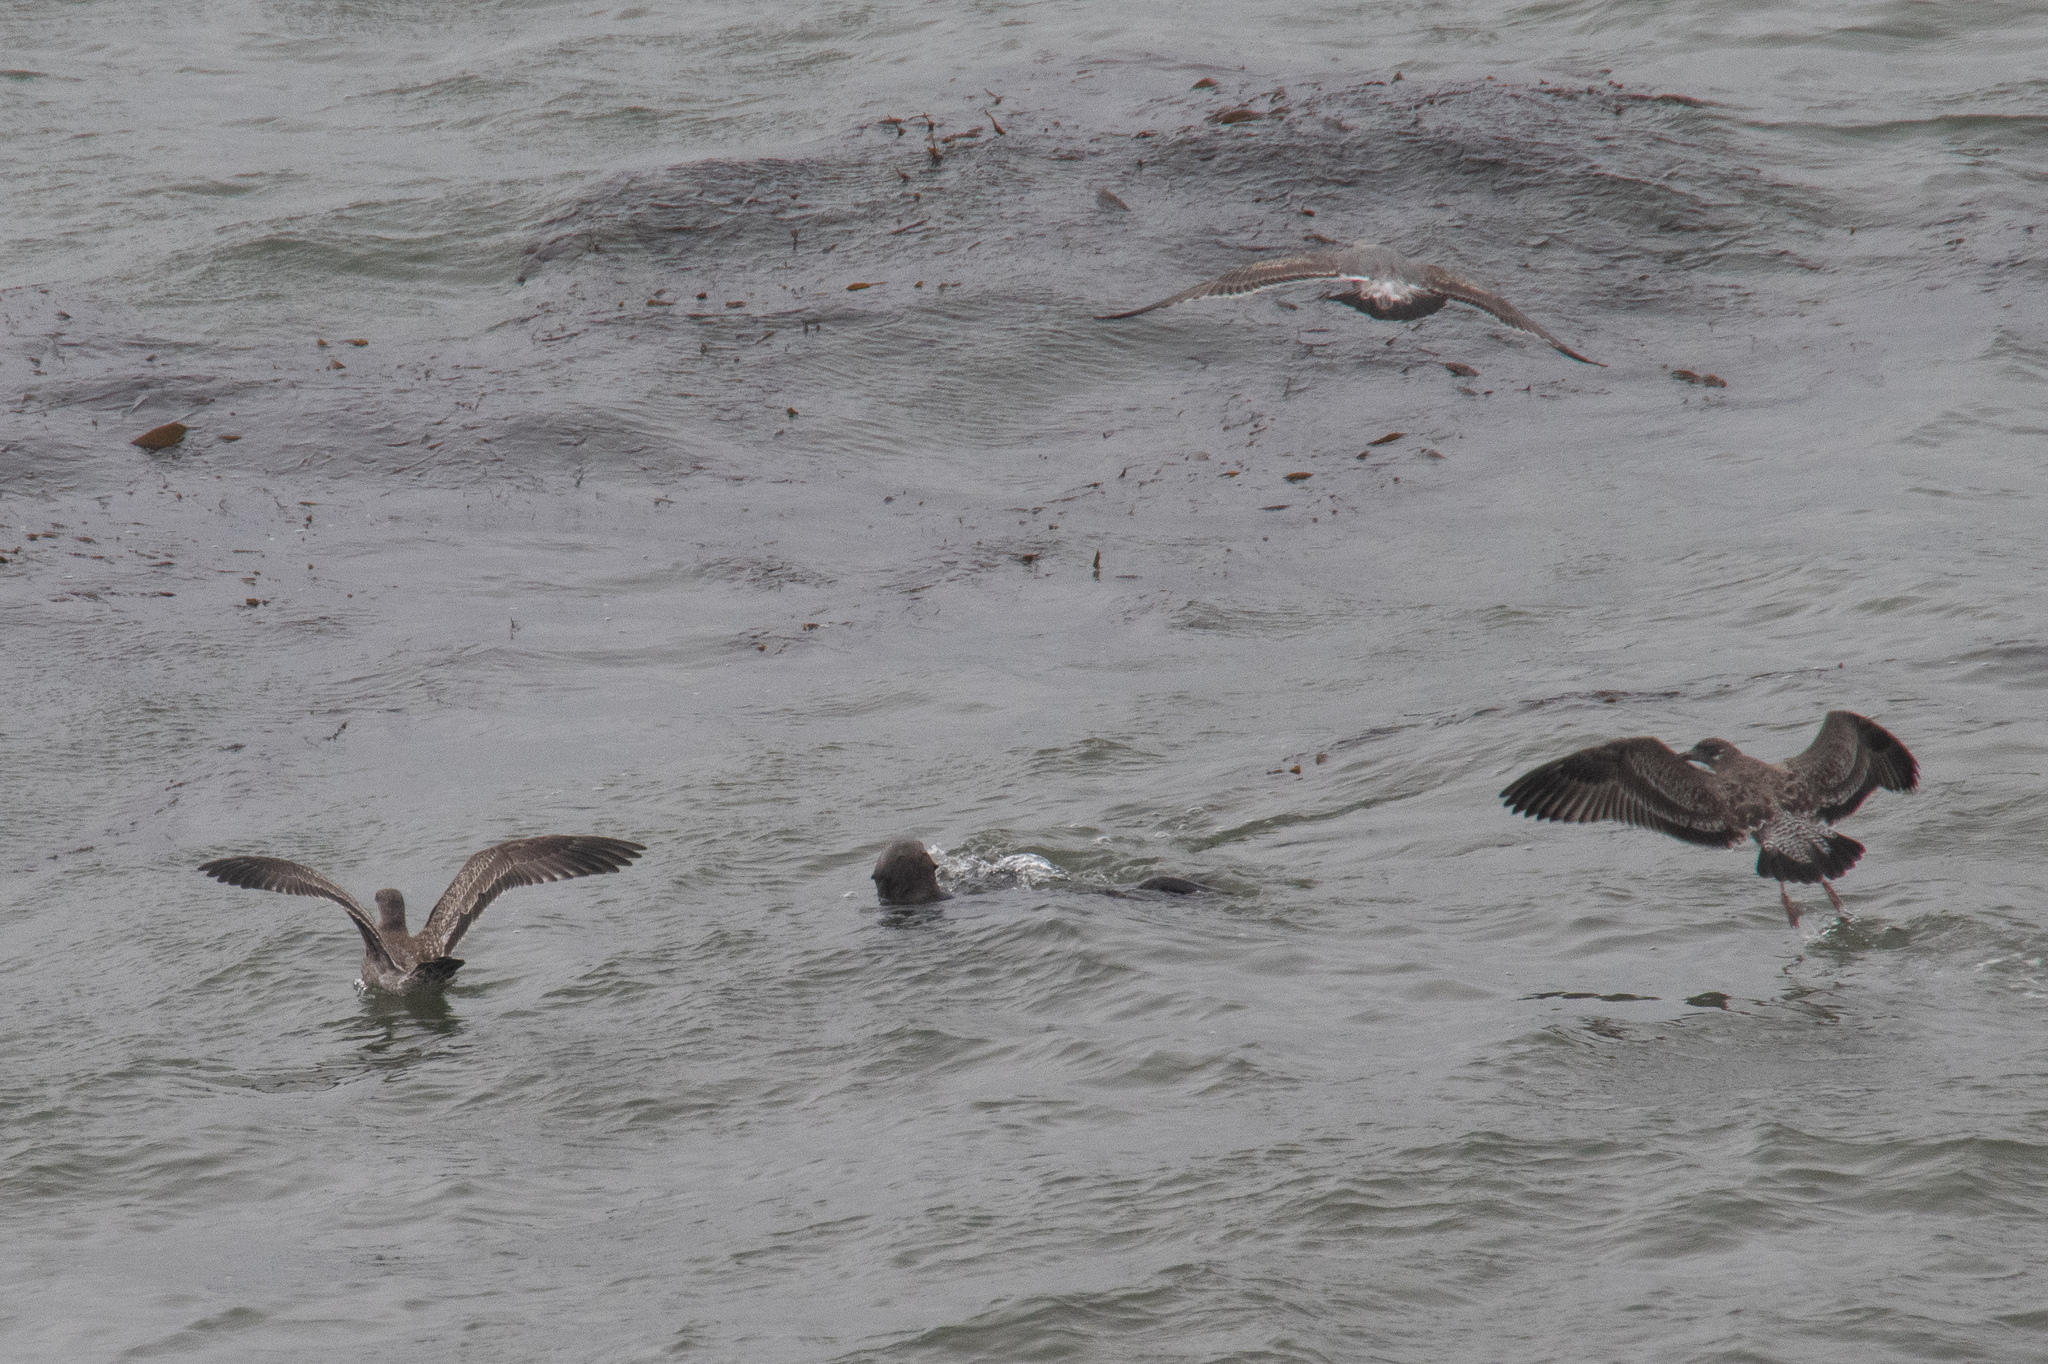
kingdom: Animalia
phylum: Chordata
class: Mammalia
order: Carnivora
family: Mustelidae
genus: Enhydra
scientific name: Enhydra lutris
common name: Sea otter
